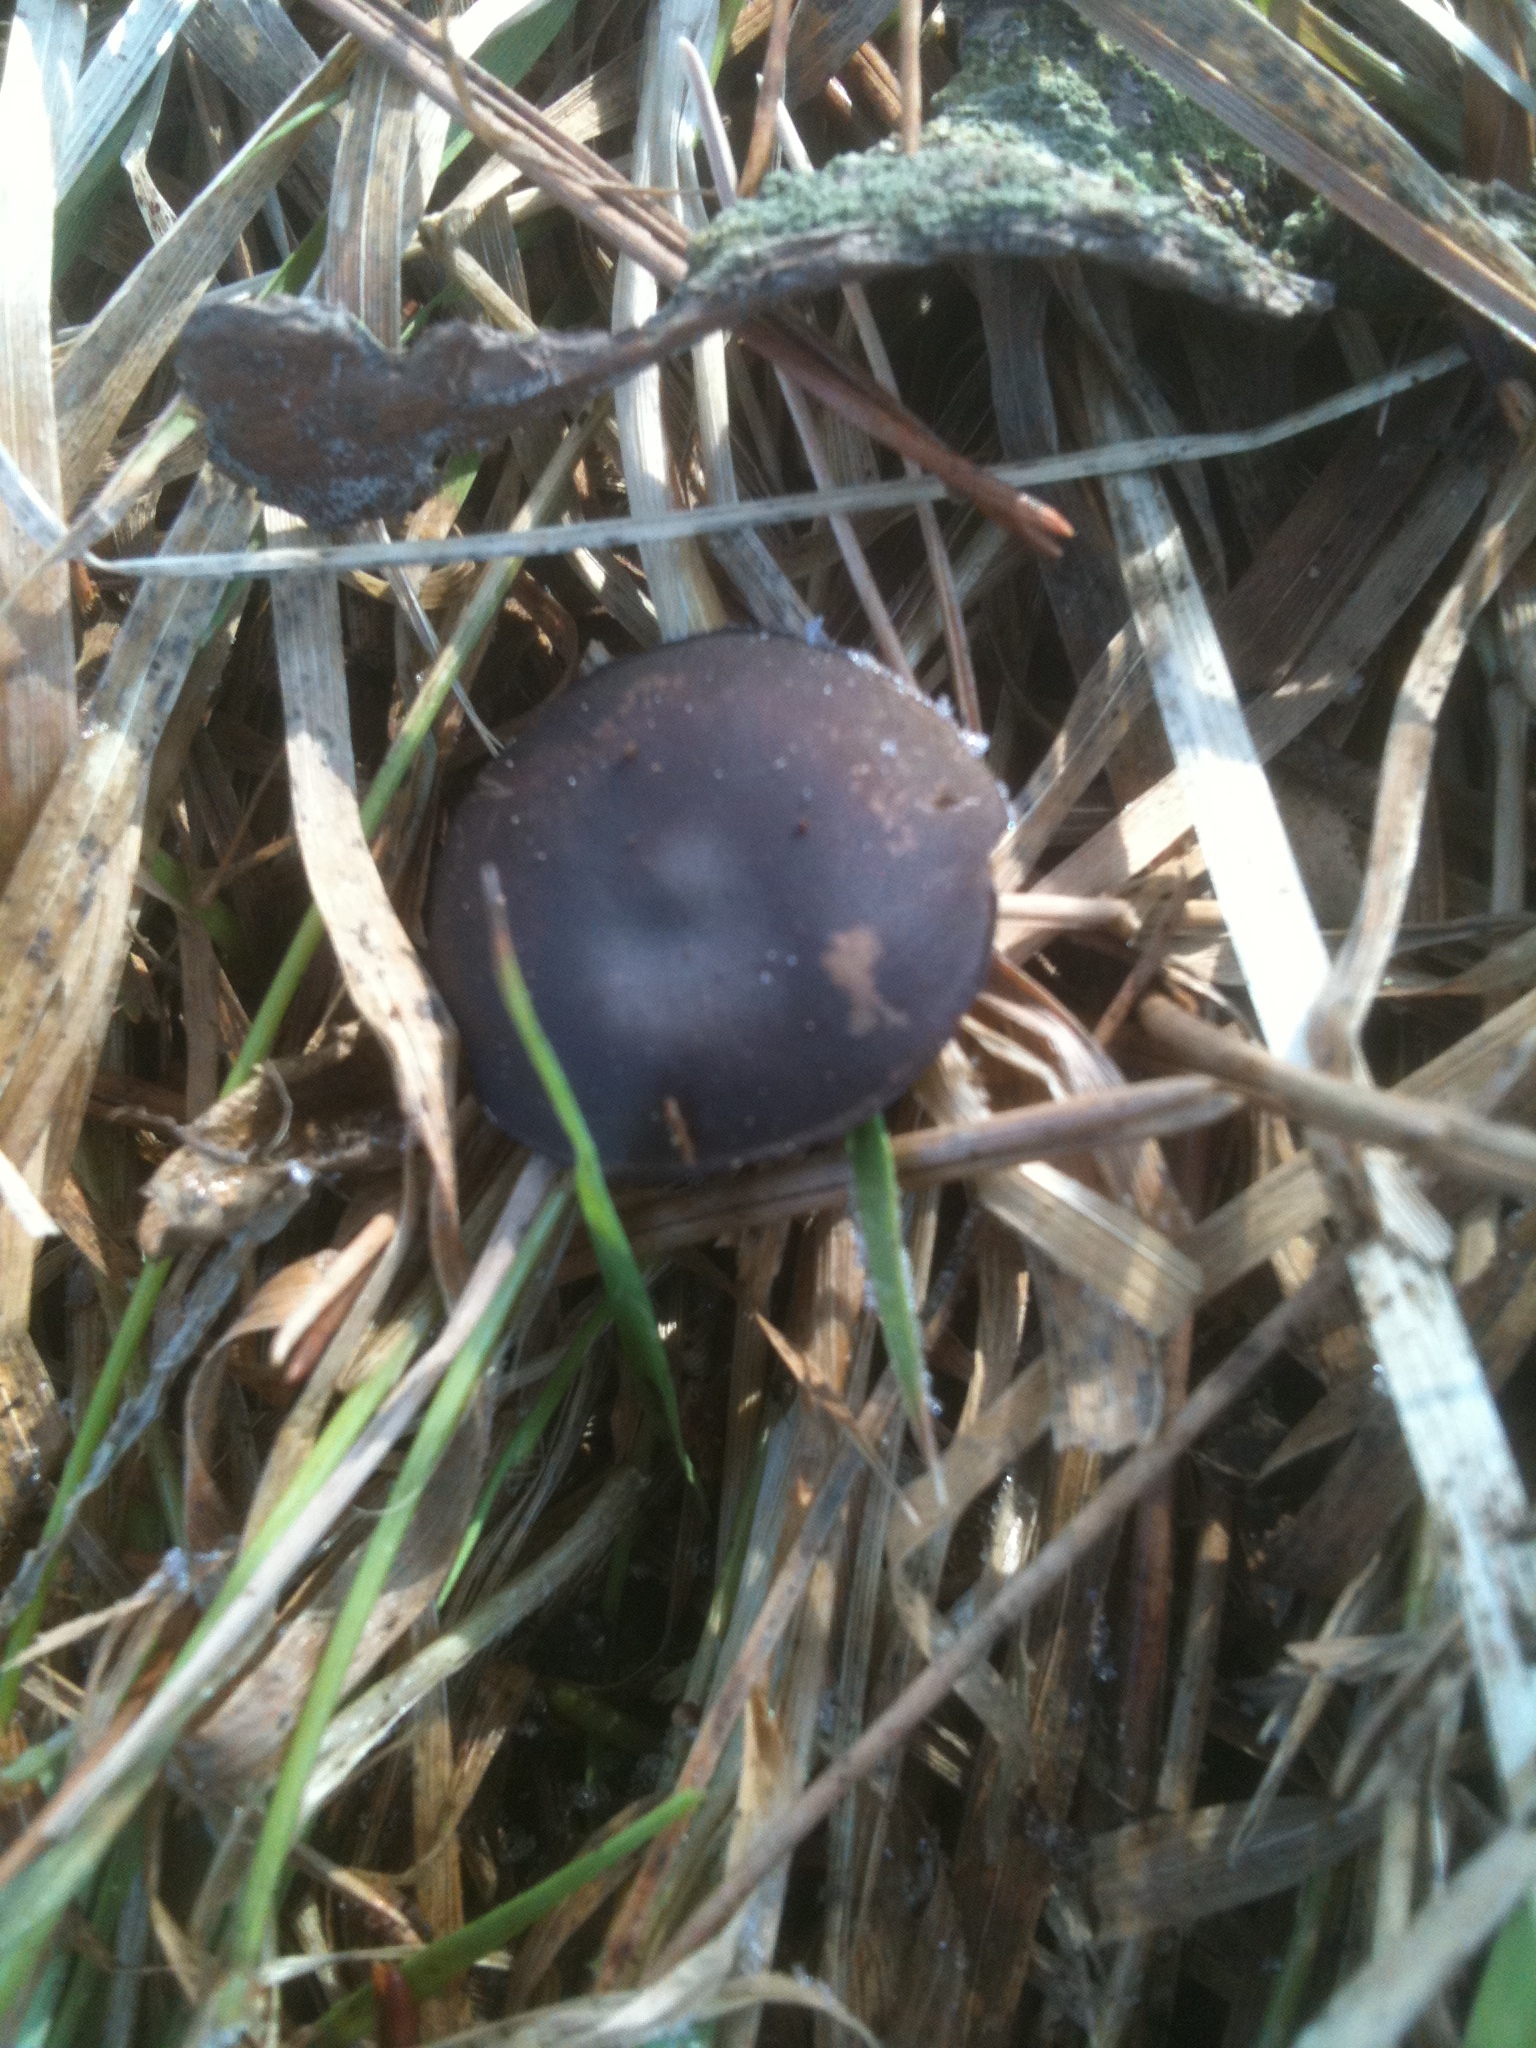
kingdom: Fungi
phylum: Basidiomycota
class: Agaricomycetes
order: Agaricales
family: Physalacriaceae
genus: Strobilurus
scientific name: Strobilurus stephanocystis
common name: Russian conecap
